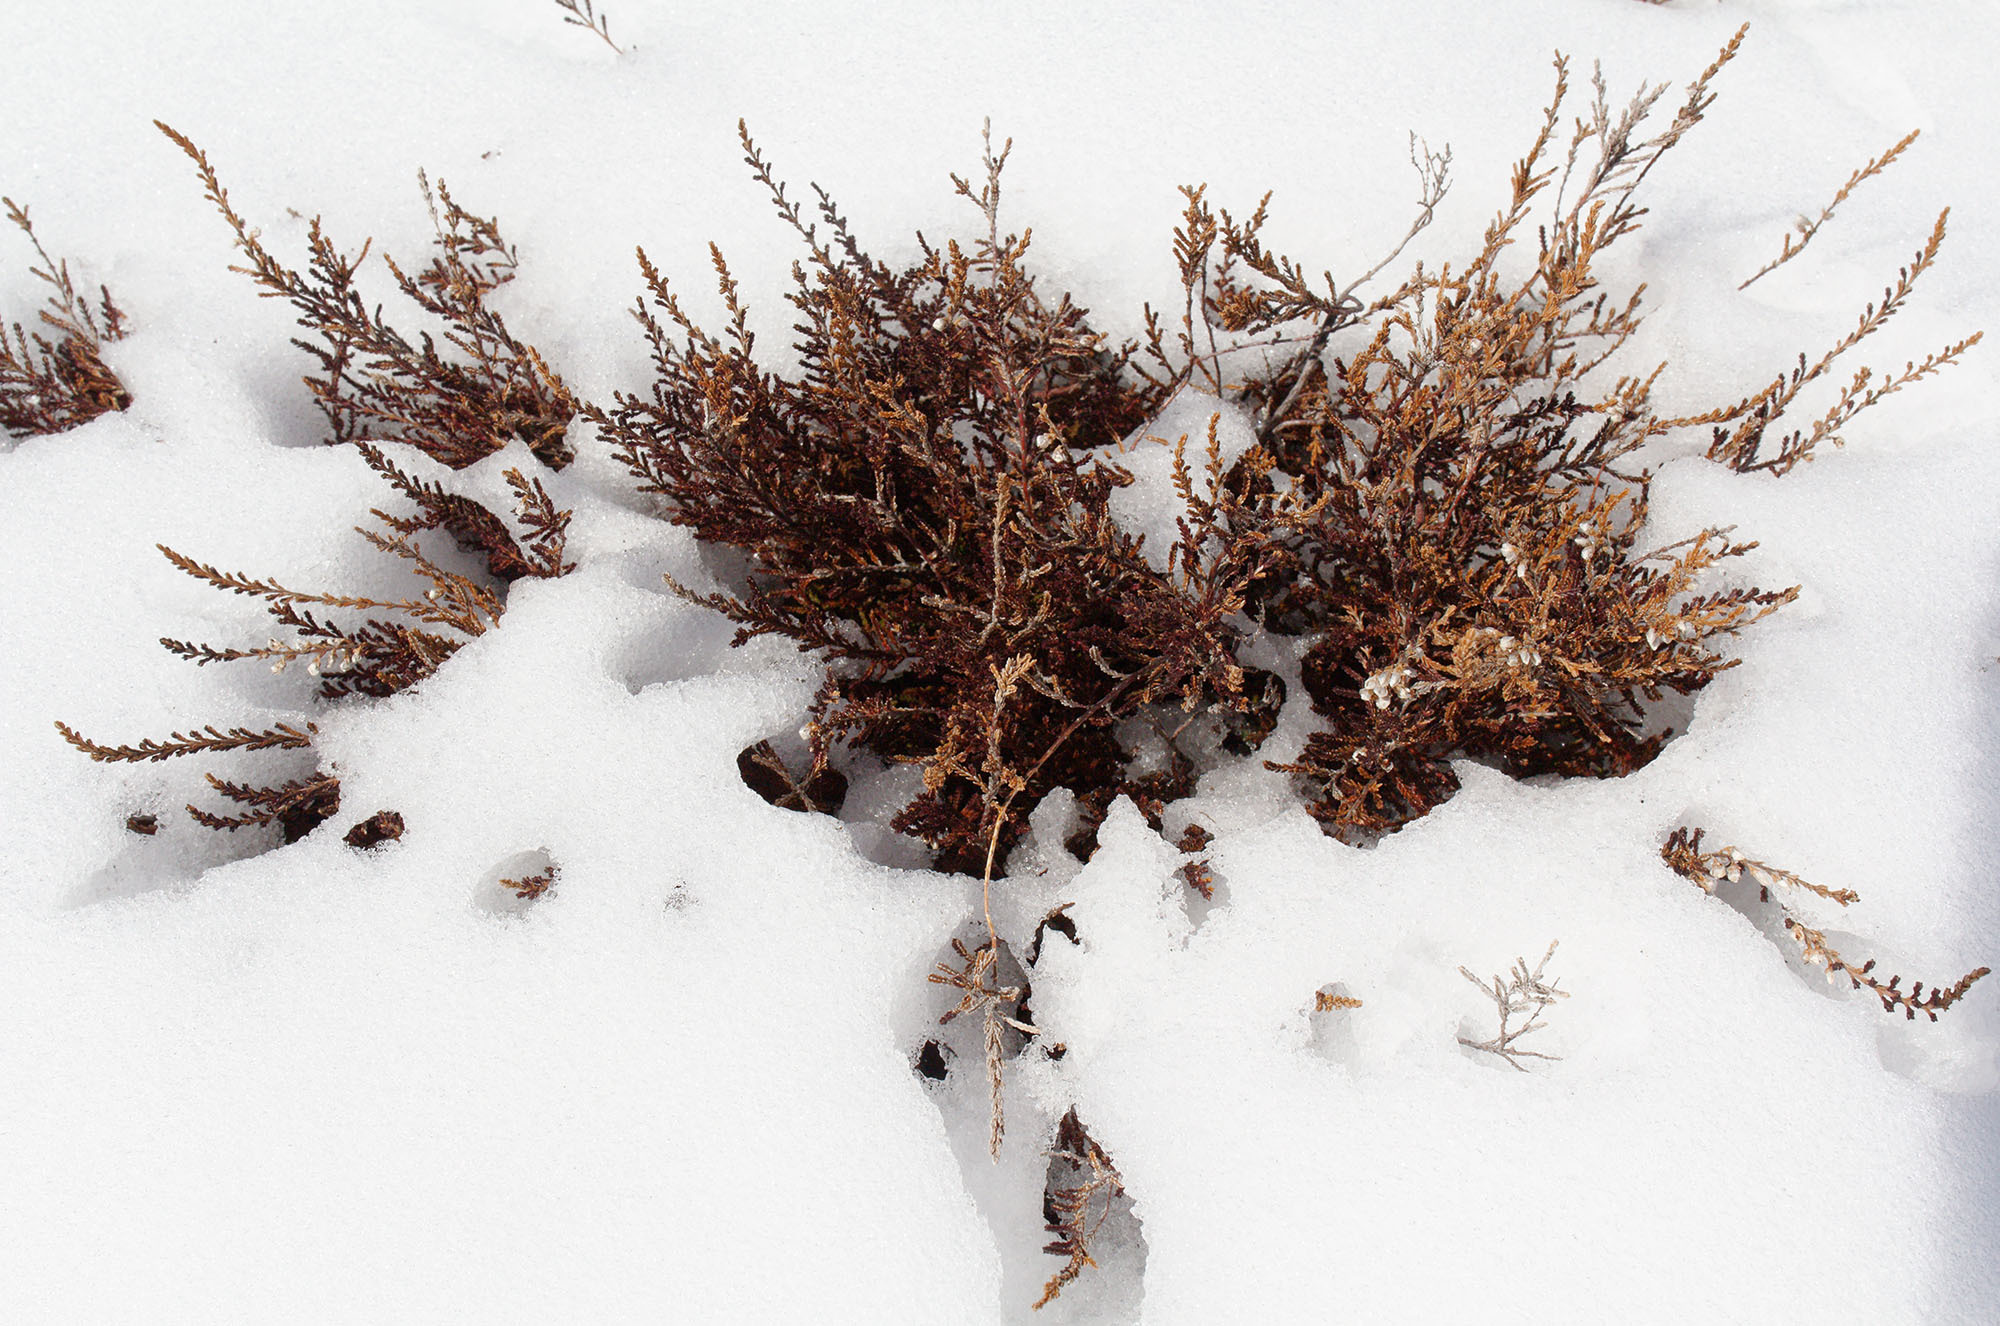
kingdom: Plantae
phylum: Tracheophyta
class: Magnoliopsida
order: Ericales
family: Ericaceae
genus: Calluna
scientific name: Calluna vulgaris
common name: Heather
